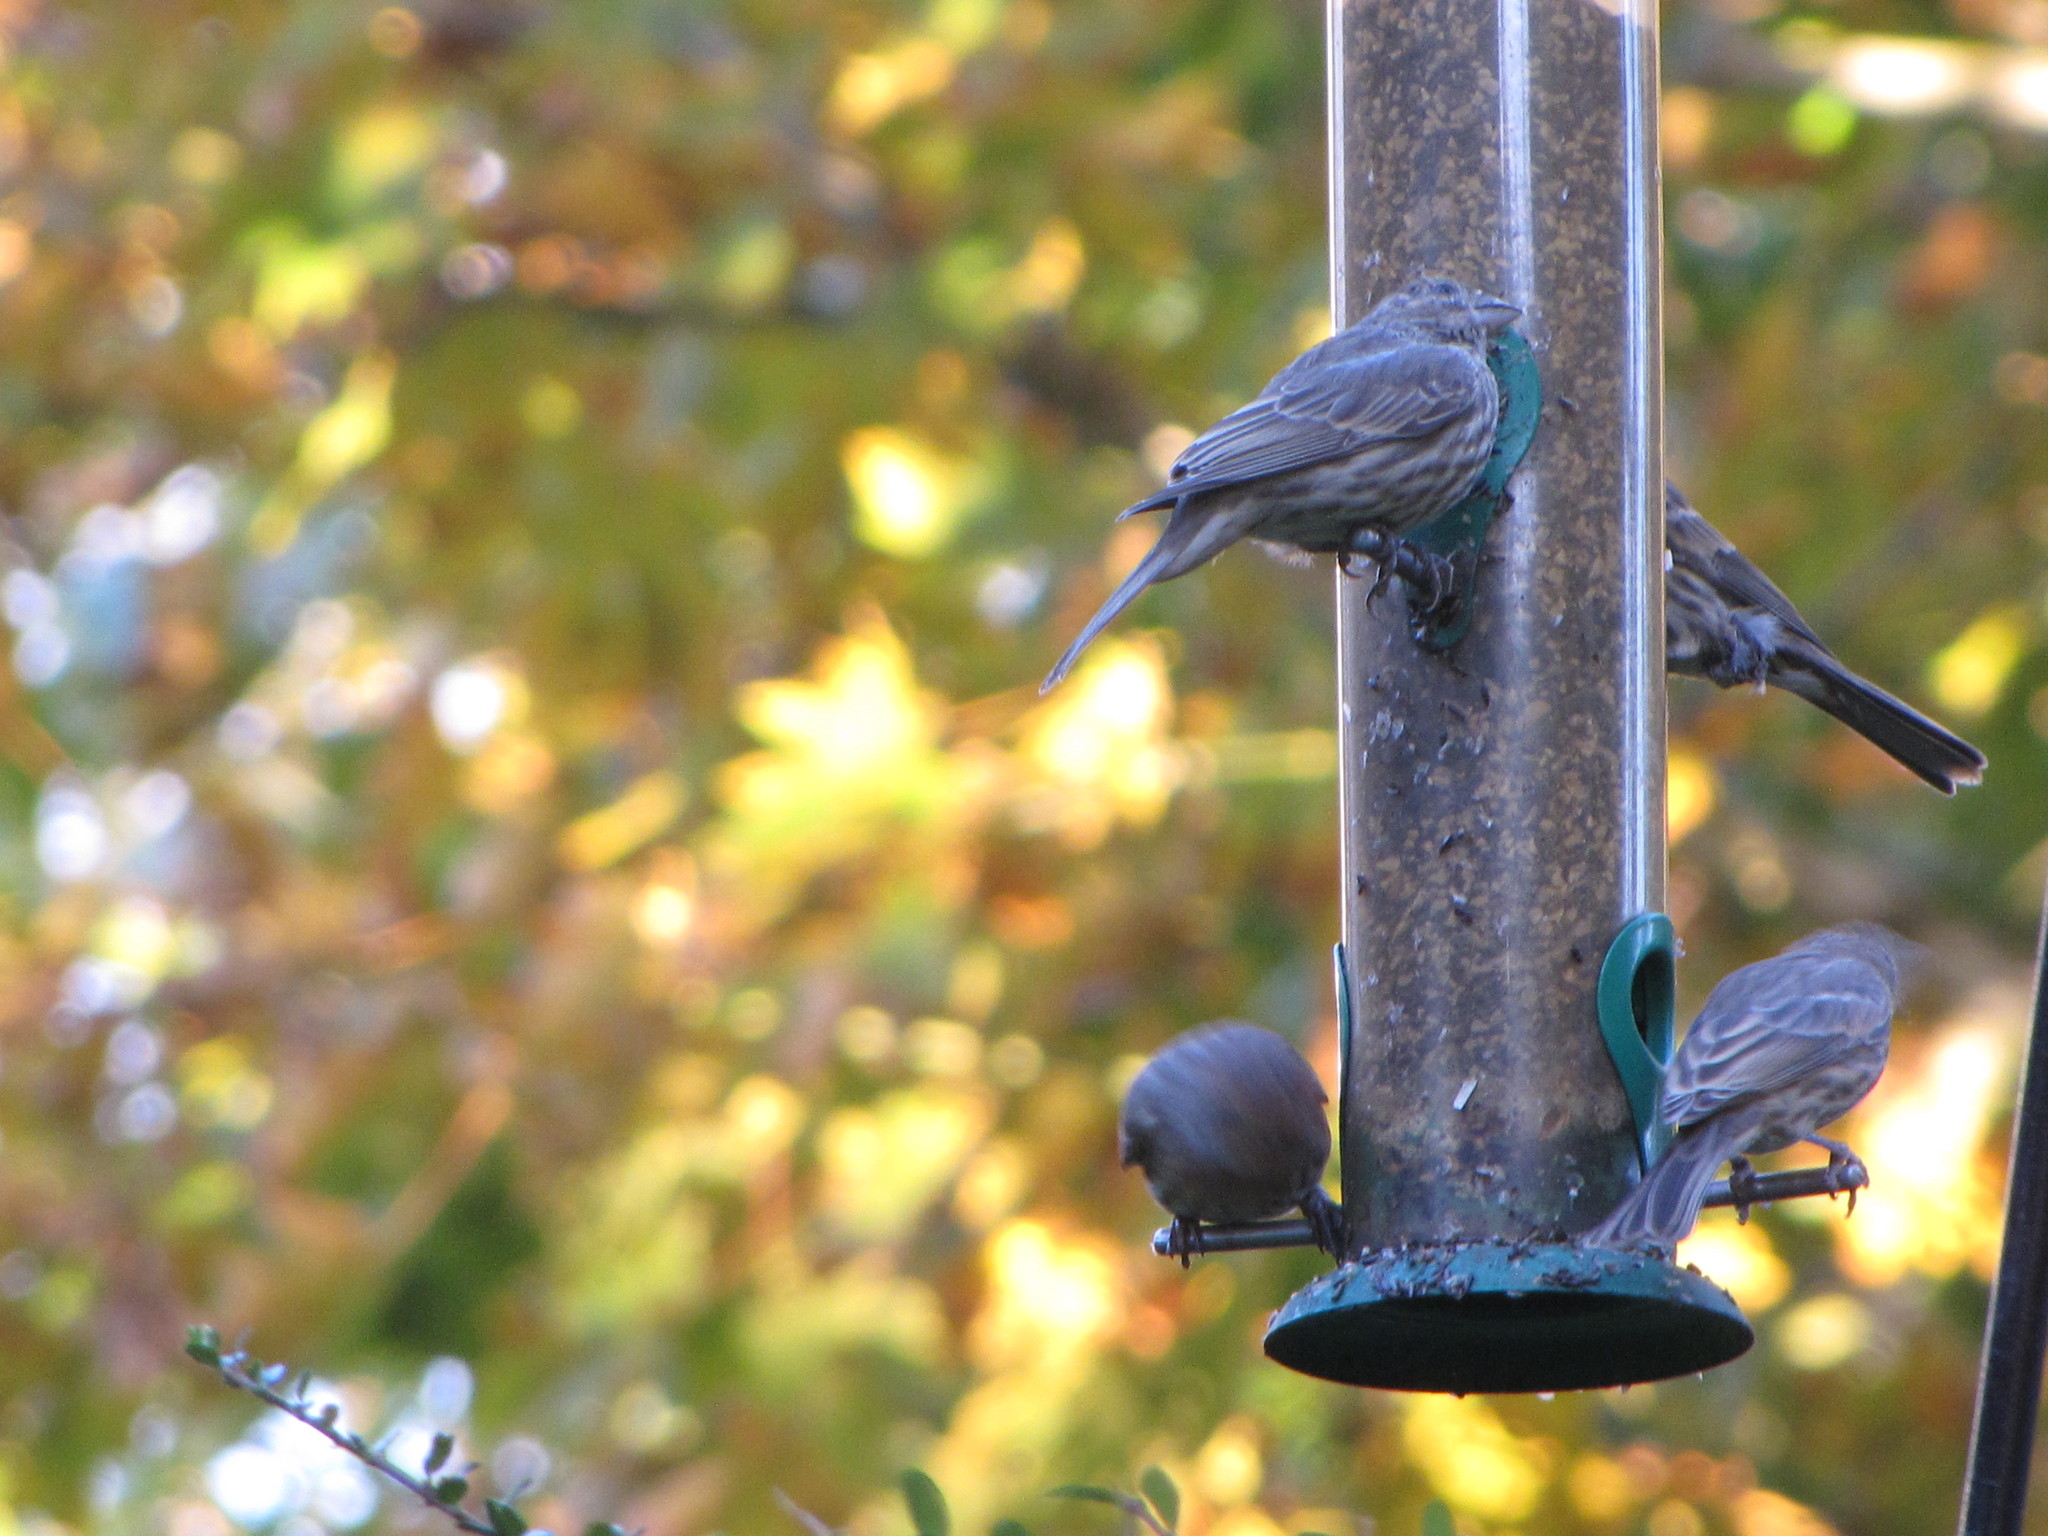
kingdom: Animalia
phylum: Chordata
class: Aves
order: Passeriformes
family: Fringillidae
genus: Haemorhous
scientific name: Haemorhous mexicanus
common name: House finch
